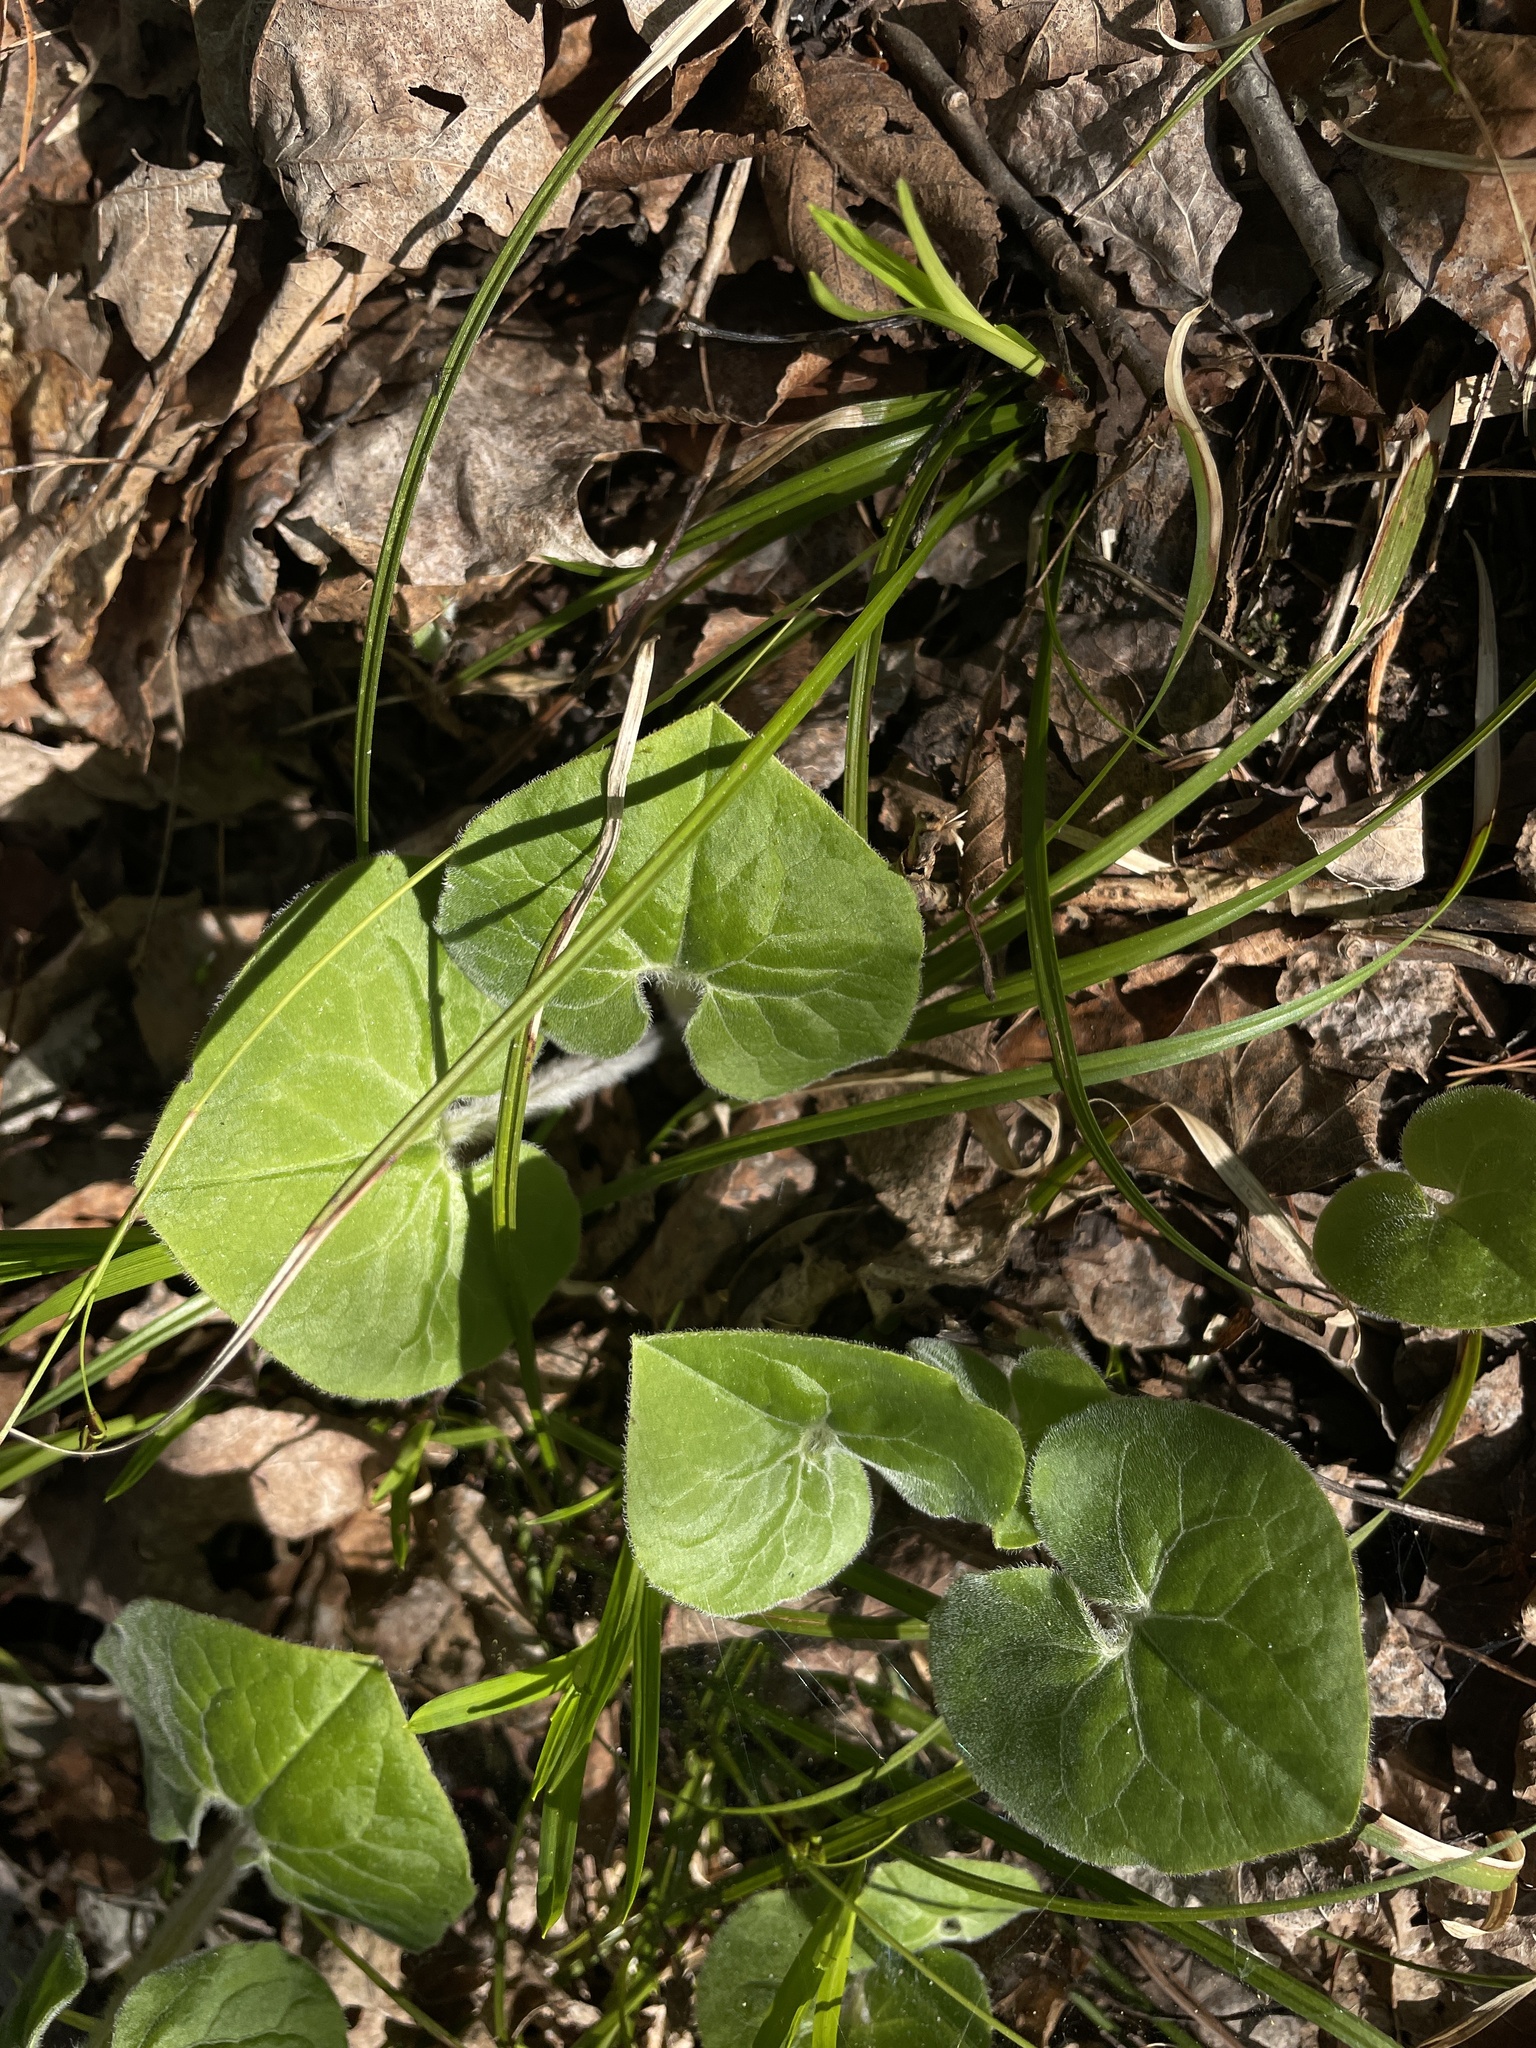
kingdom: Plantae
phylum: Tracheophyta
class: Magnoliopsida
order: Piperales
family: Aristolochiaceae
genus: Asarum
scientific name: Asarum canadense
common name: Wild ginger
